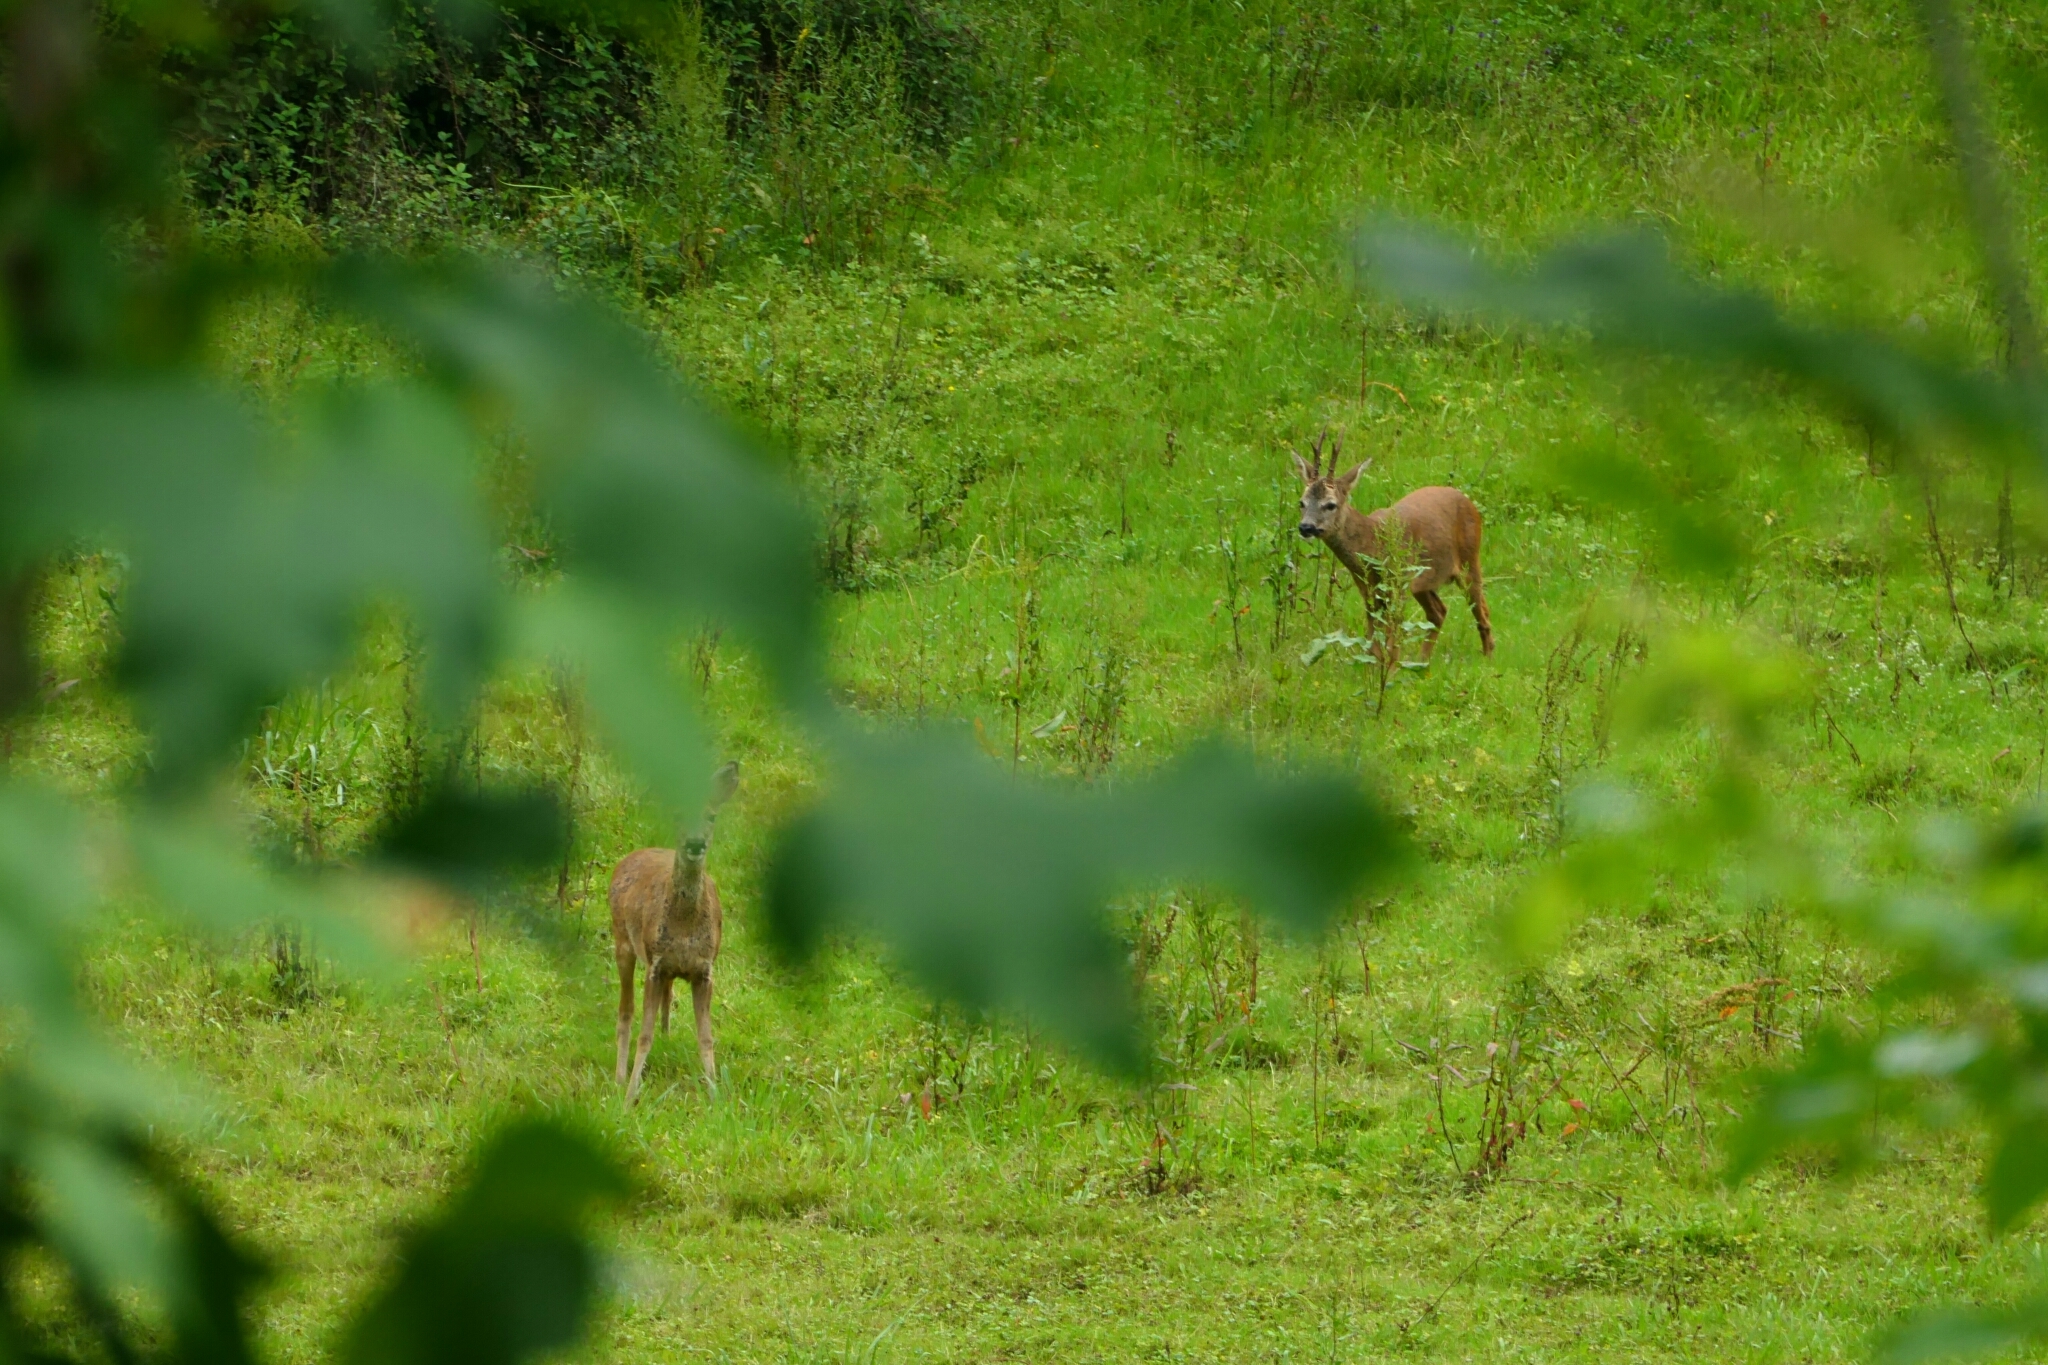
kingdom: Animalia
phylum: Chordata
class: Mammalia
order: Artiodactyla
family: Cervidae
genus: Capreolus
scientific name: Capreolus capreolus
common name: Western roe deer
